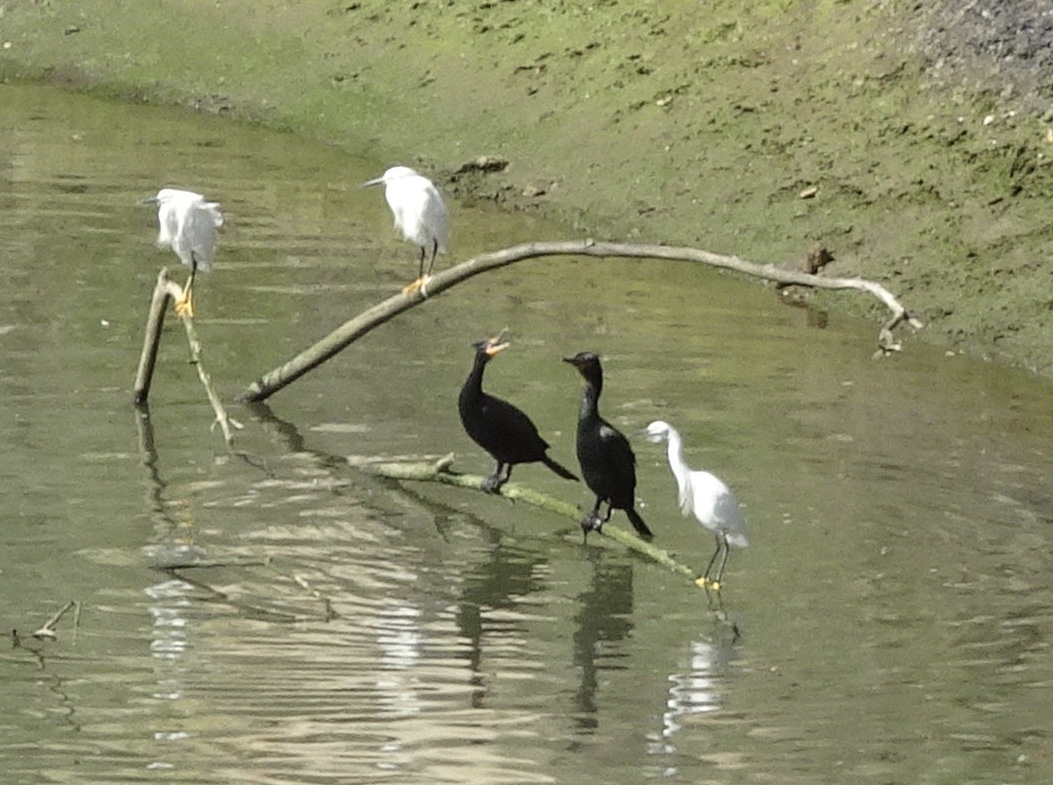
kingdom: Animalia
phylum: Chordata
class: Aves
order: Suliformes
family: Phalacrocoracidae
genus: Phalacrocorax
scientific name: Phalacrocorax auritus
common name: Double-crested cormorant
